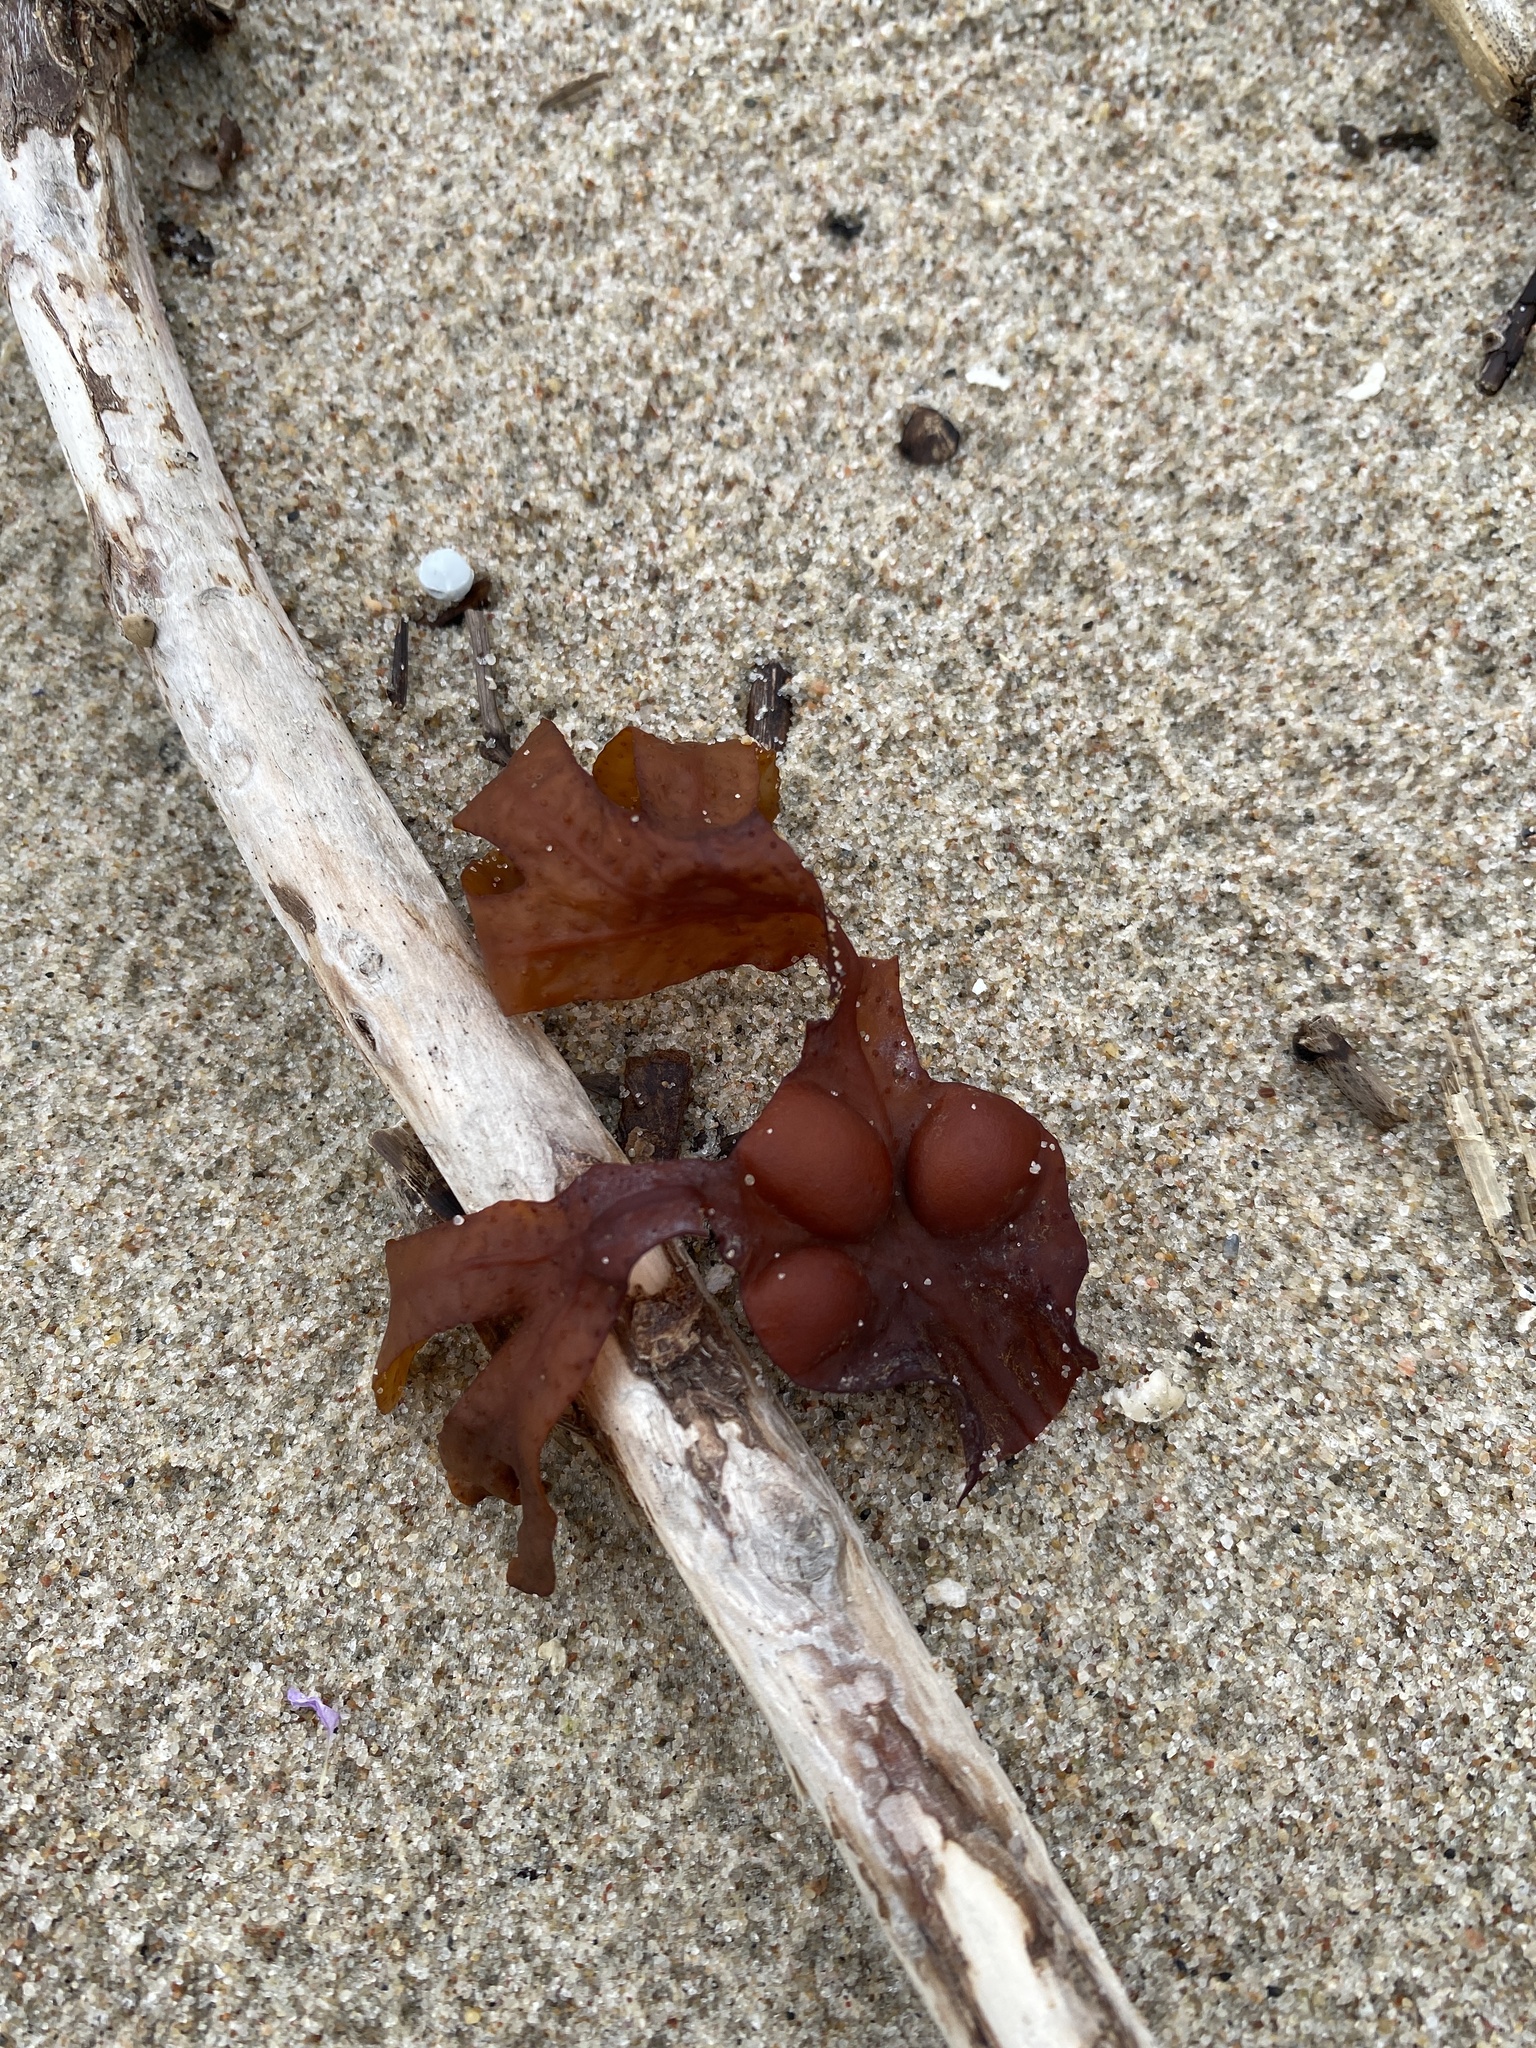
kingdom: Chromista
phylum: Ochrophyta
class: Phaeophyceae
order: Fucales
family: Fucaceae
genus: Fucus
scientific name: Fucus vesiculosus
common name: Bladder wrack
